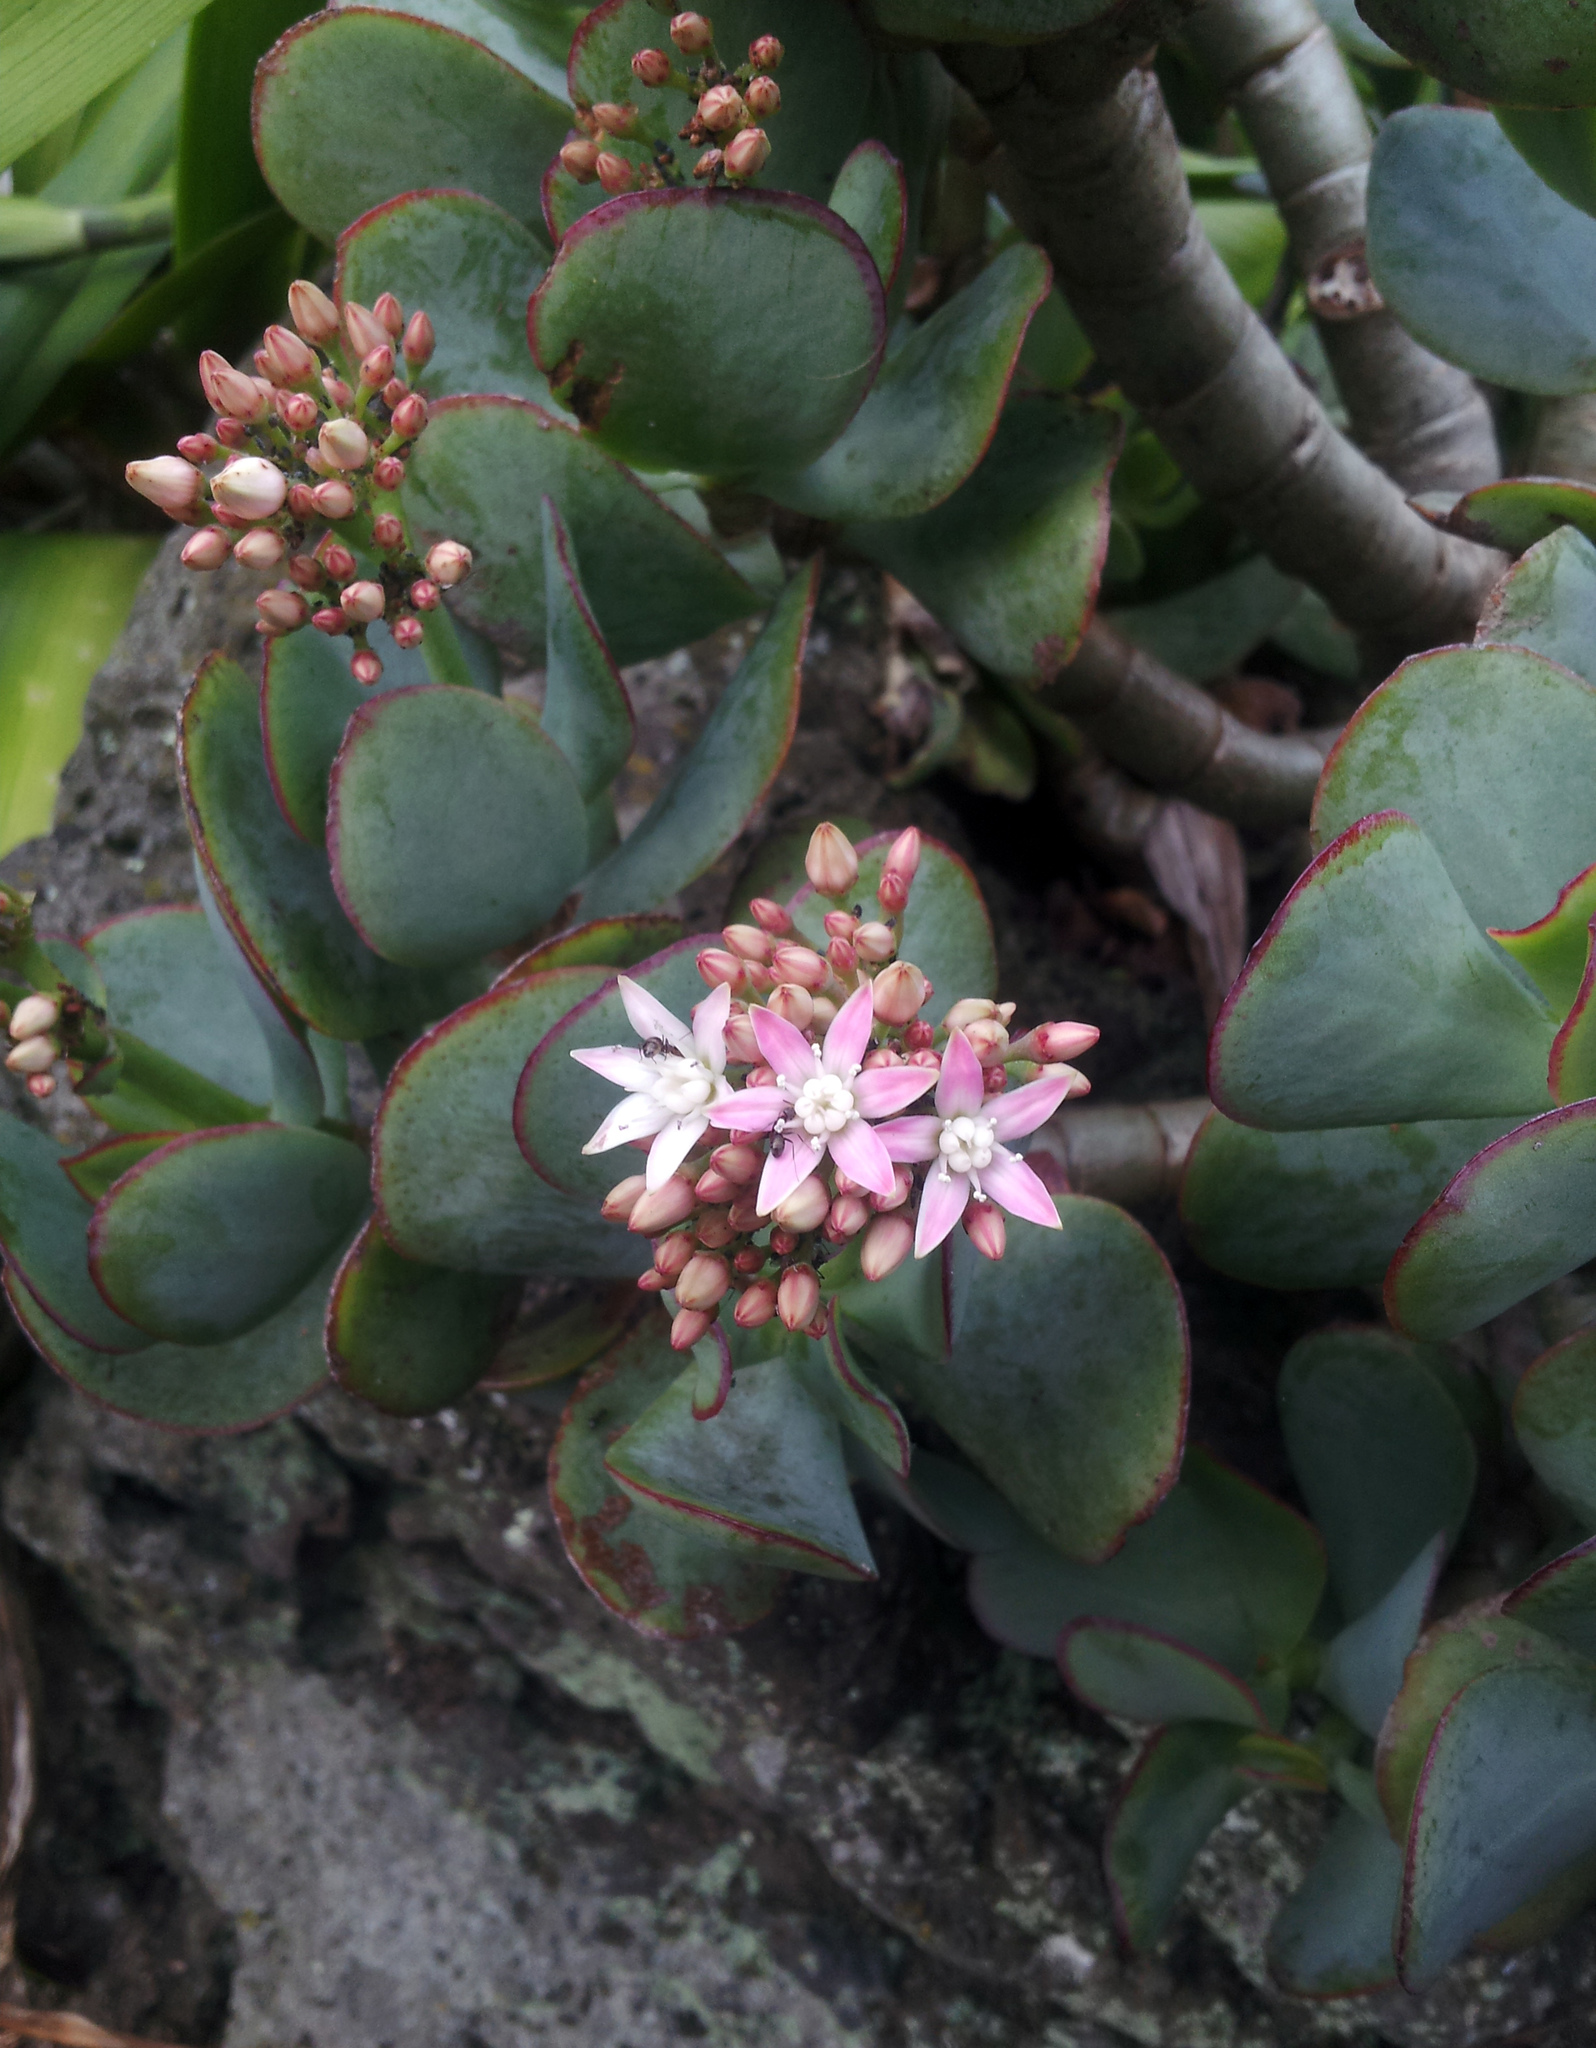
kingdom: Plantae
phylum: Tracheophyta
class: Magnoliopsida
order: Saxifragales
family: Crassulaceae
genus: Crassula
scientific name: Crassula arborescens
